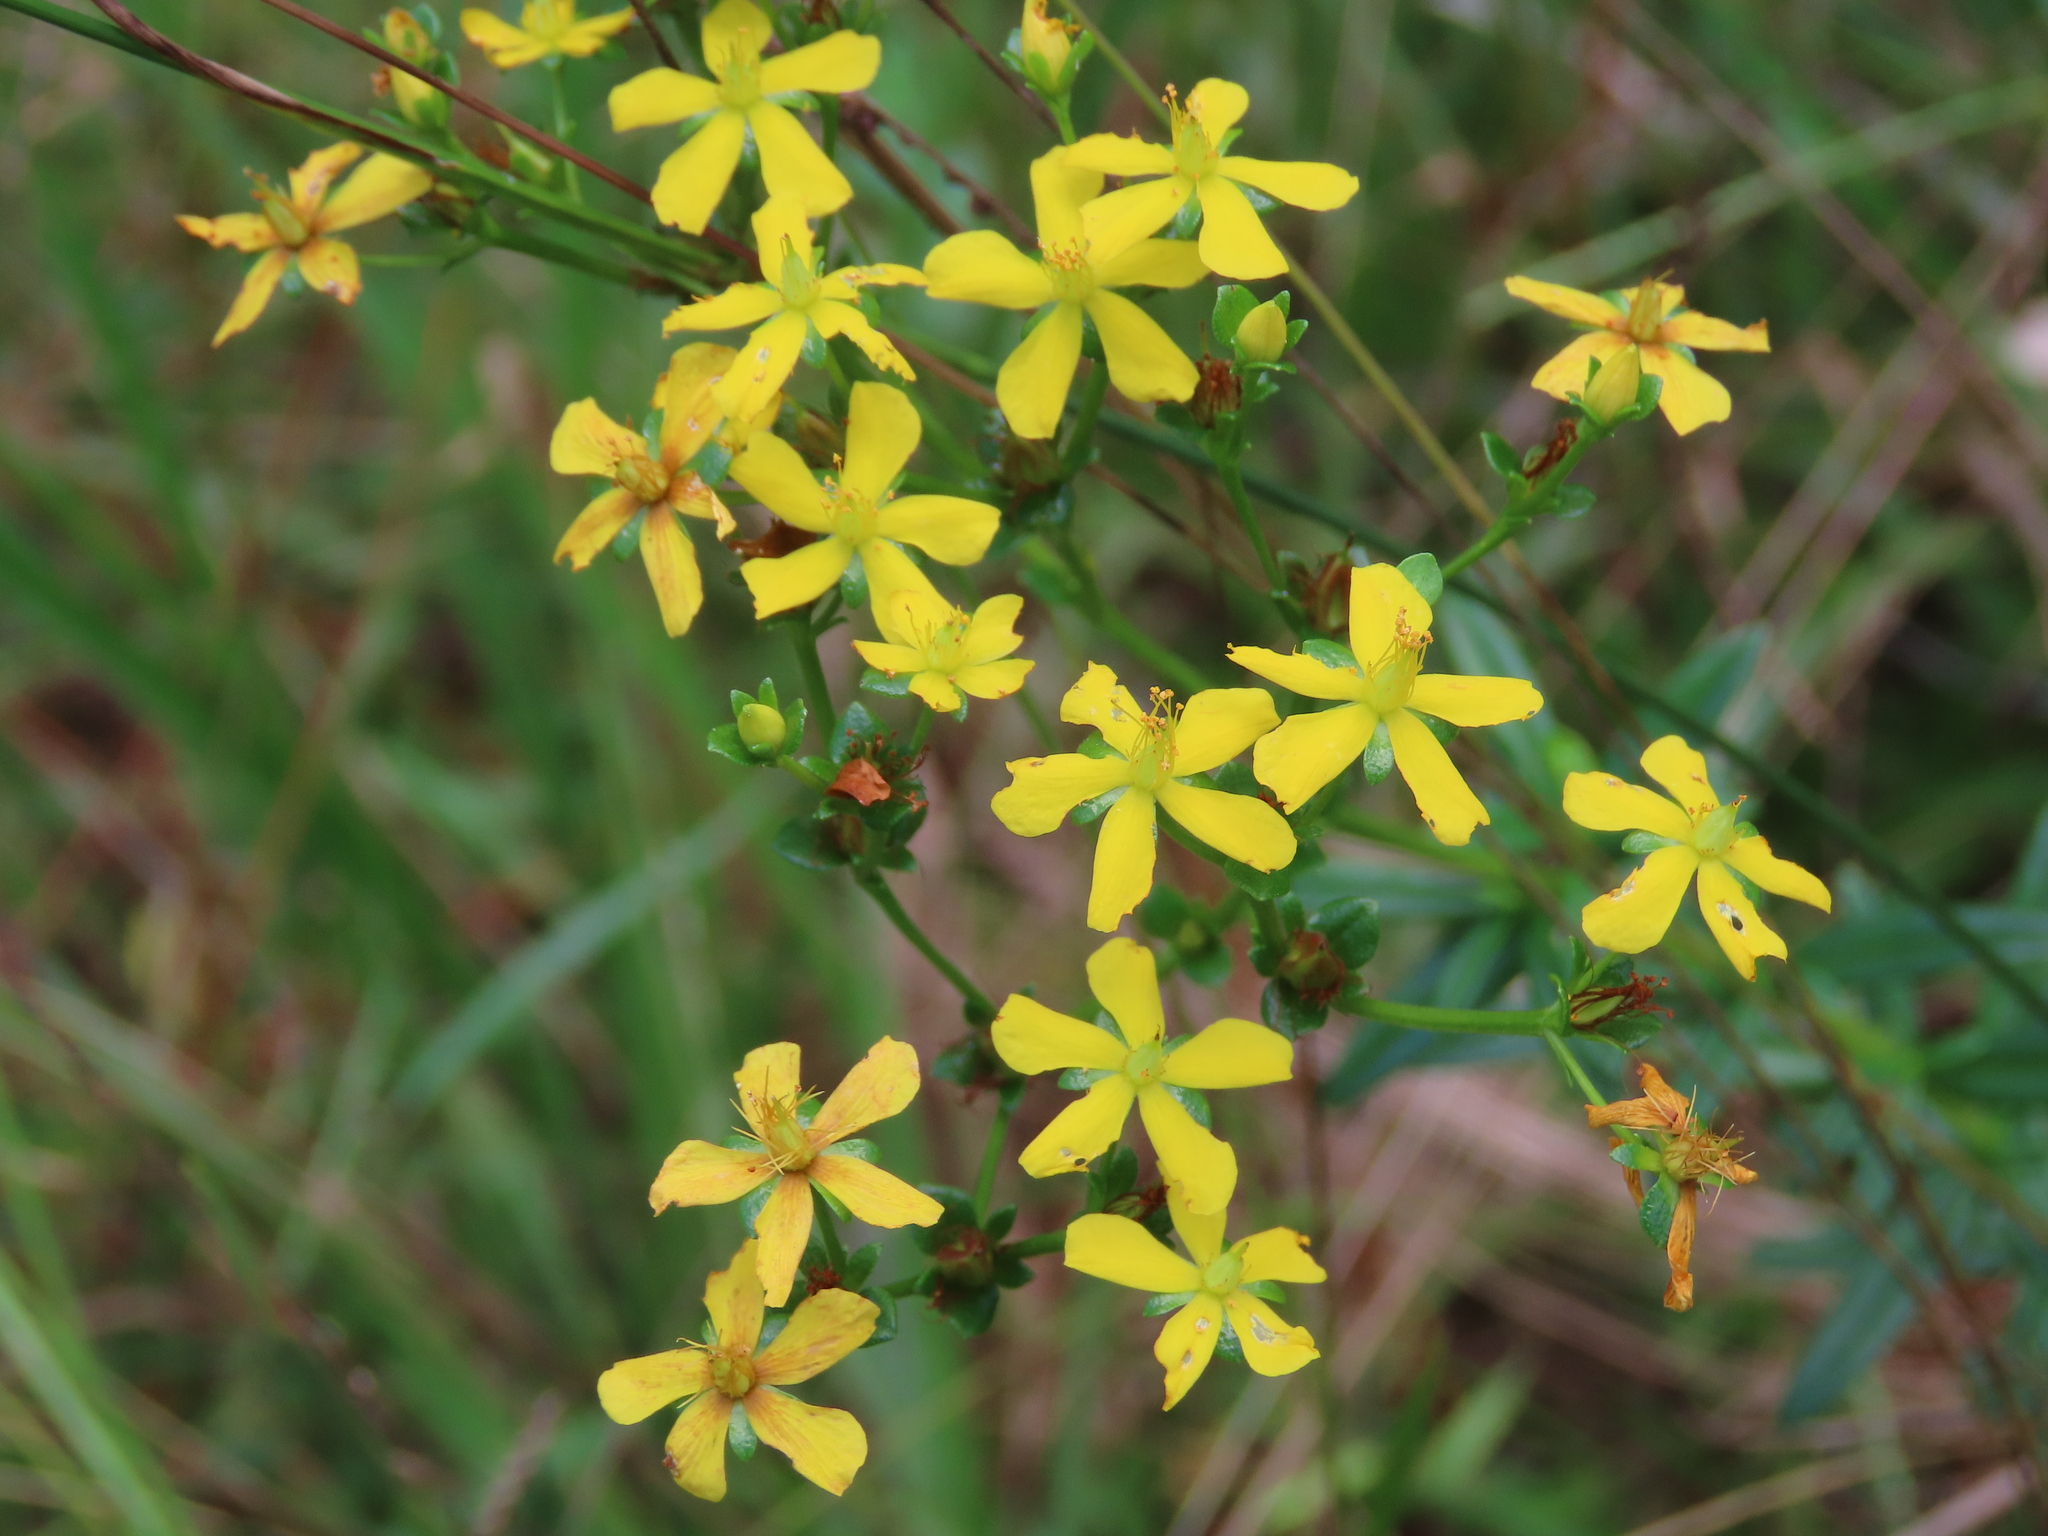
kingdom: Plantae
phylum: Tracheophyta
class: Magnoliopsida
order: Malpighiales
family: Hypericaceae
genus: Hypericum
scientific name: Hypericum cistifolium
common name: Round-pod st. john's-wort
